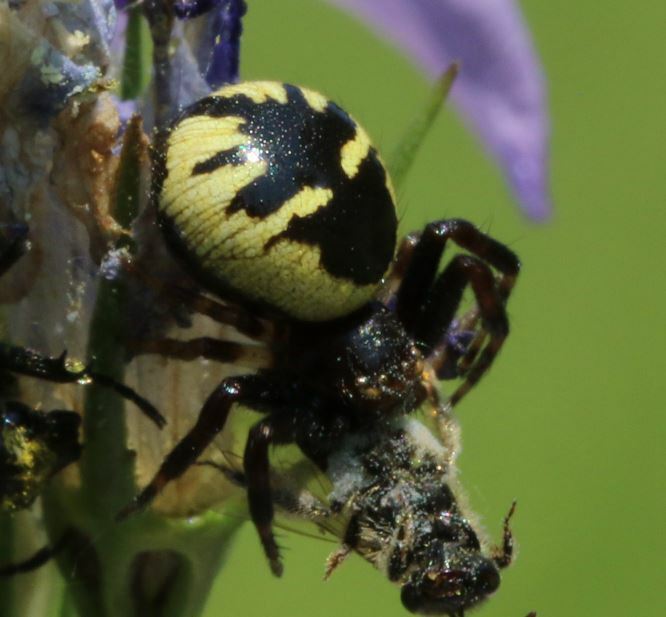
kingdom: Animalia
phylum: Arthropoda
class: Arachnida
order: Araneae
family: Thomisidae
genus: Synema
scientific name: Synema globosum
